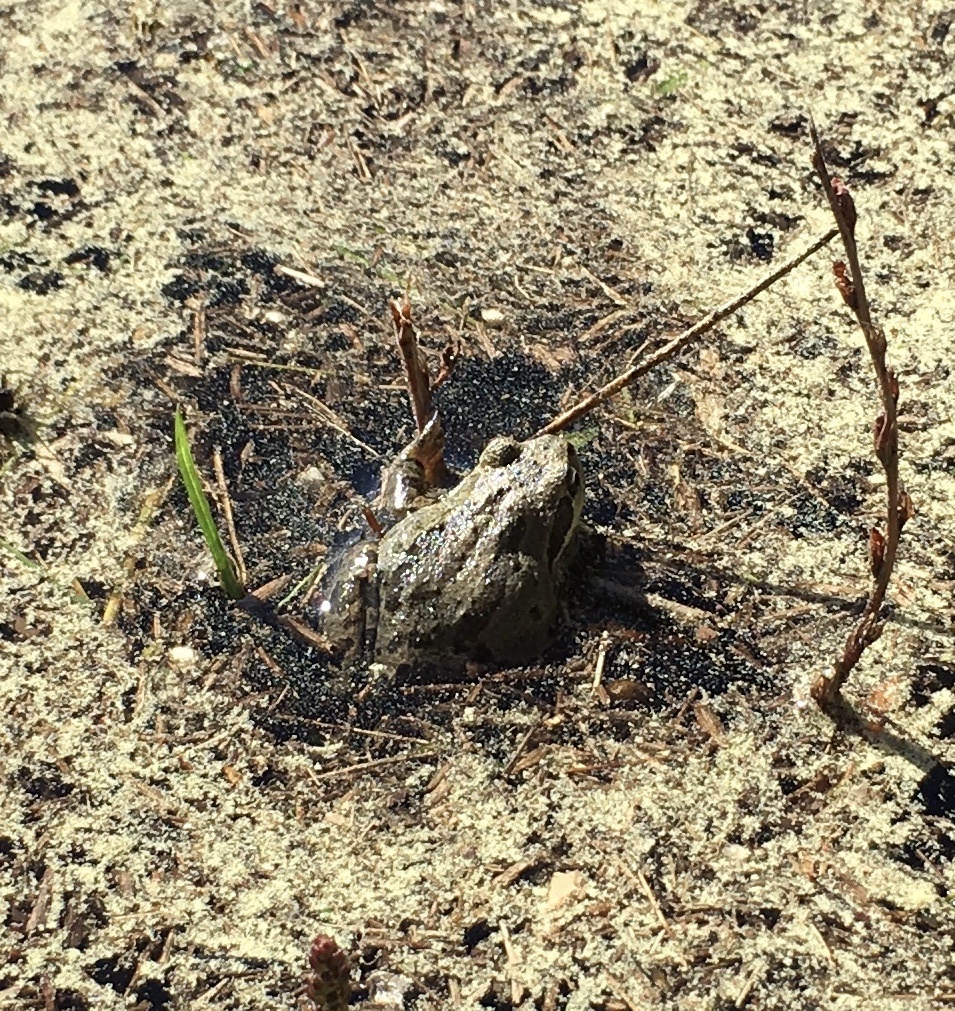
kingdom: Animalia
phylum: Chordata
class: Amphibia
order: Anura
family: Hylidae
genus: Pseudacris
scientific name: Pseudacris regilla
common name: Pacific chorus frog
